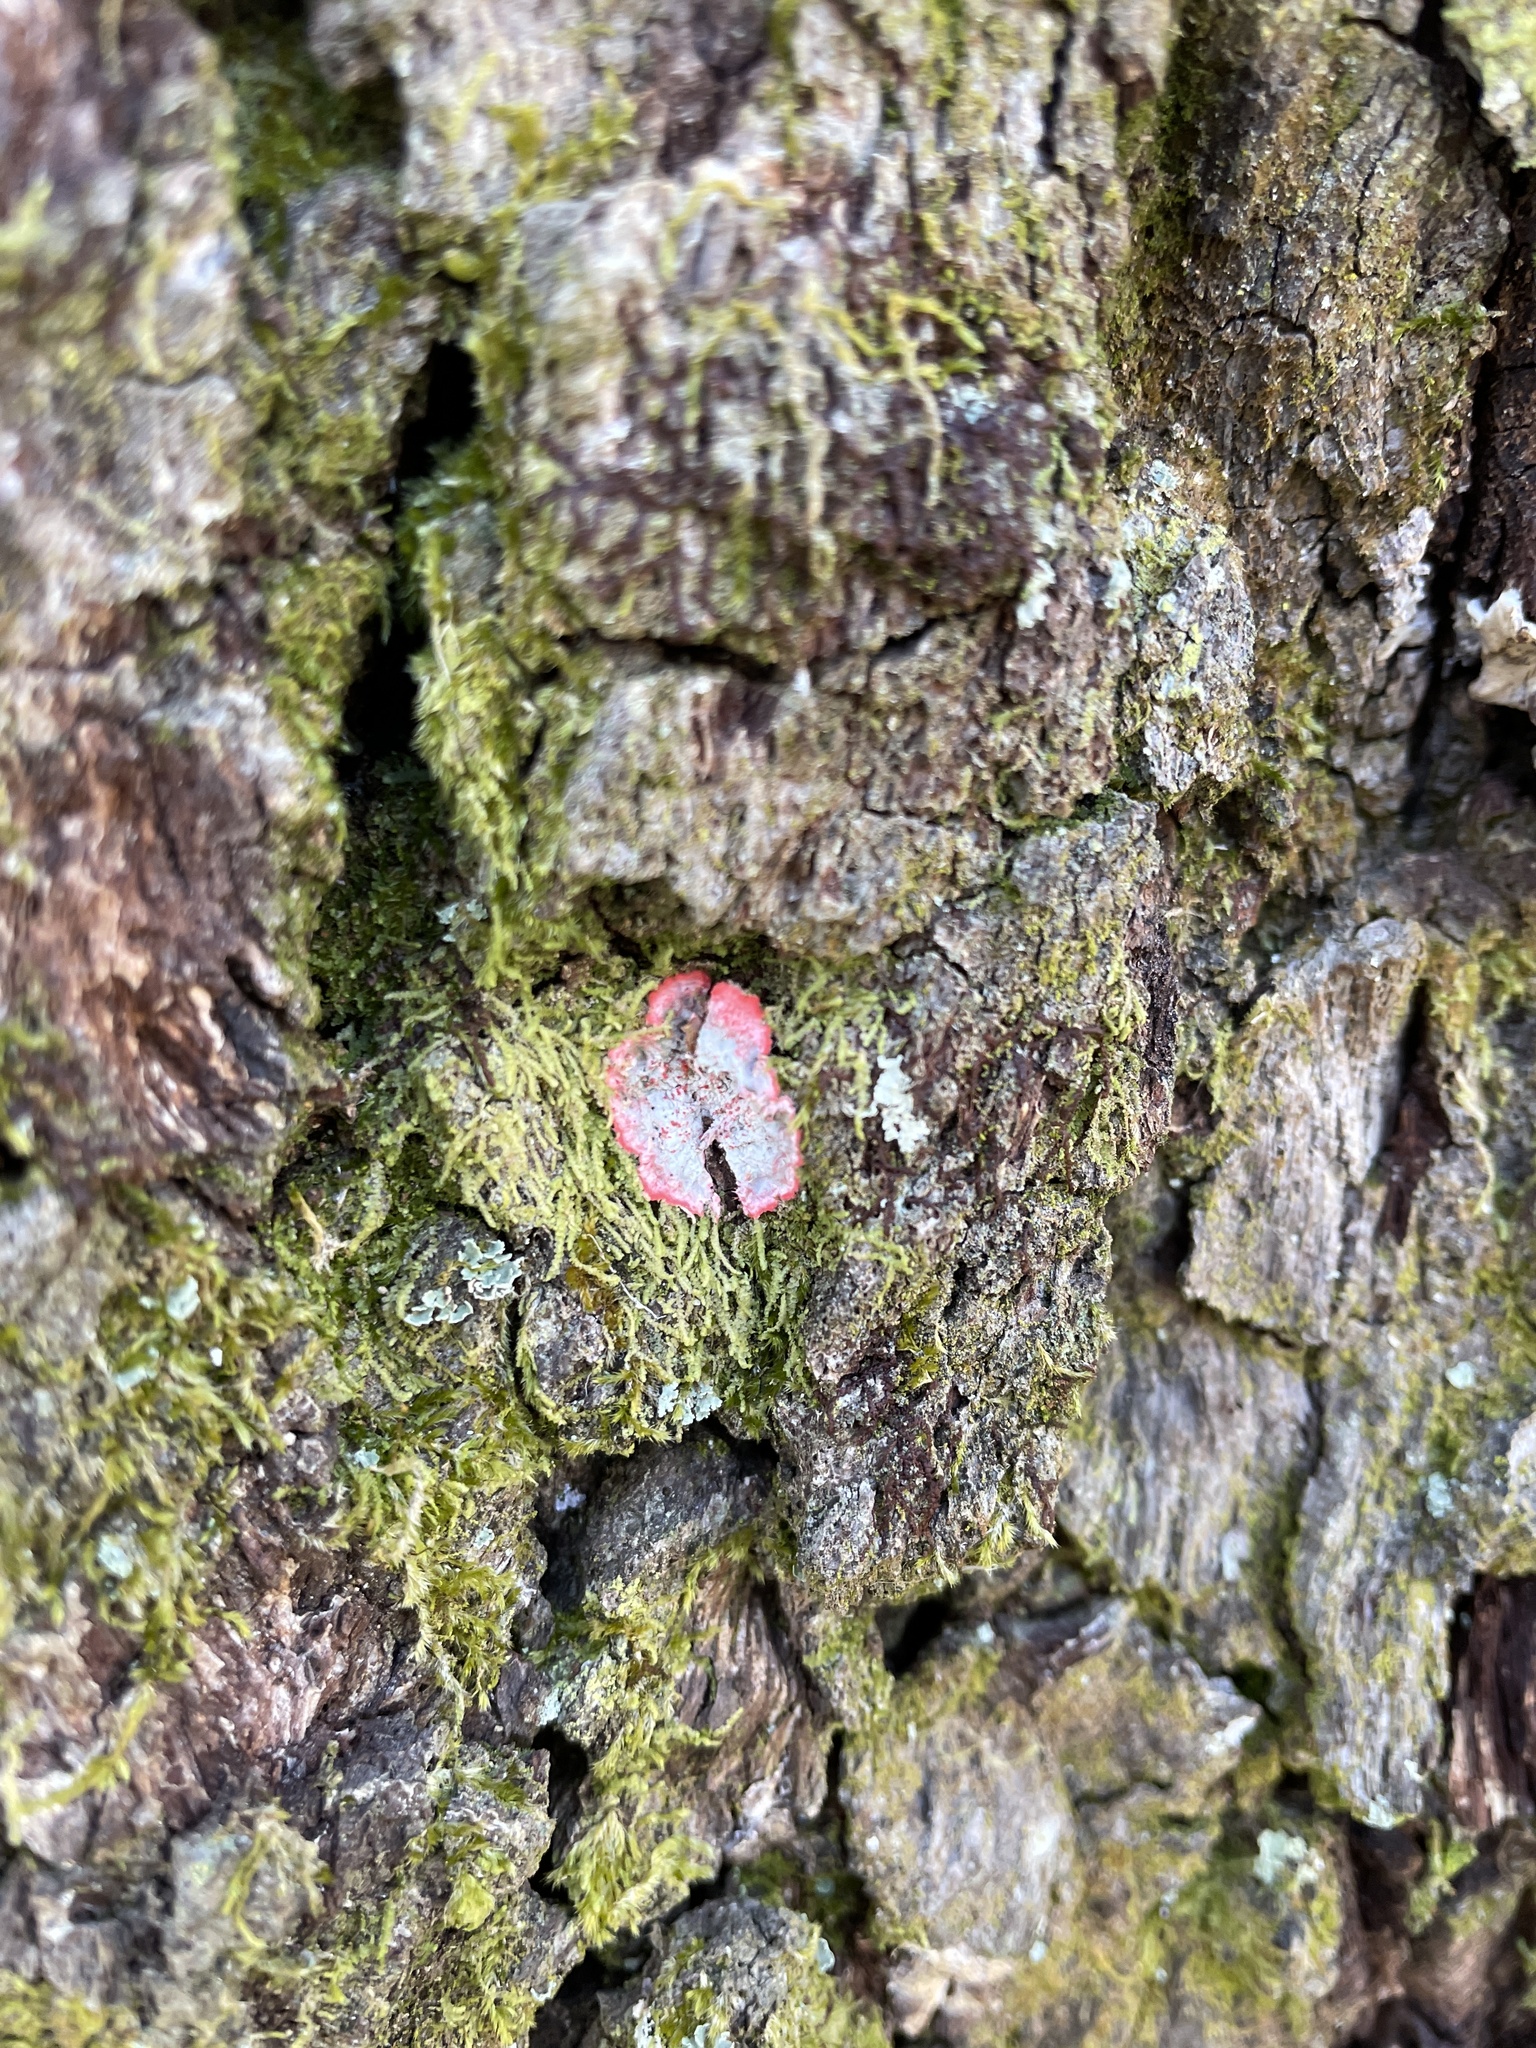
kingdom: Fungi
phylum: Ascomycota
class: Arthoniomycetes
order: Arthoniales
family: Arthoniaceae
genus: Herpothallon
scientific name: Herpothallon rubrocinctum
